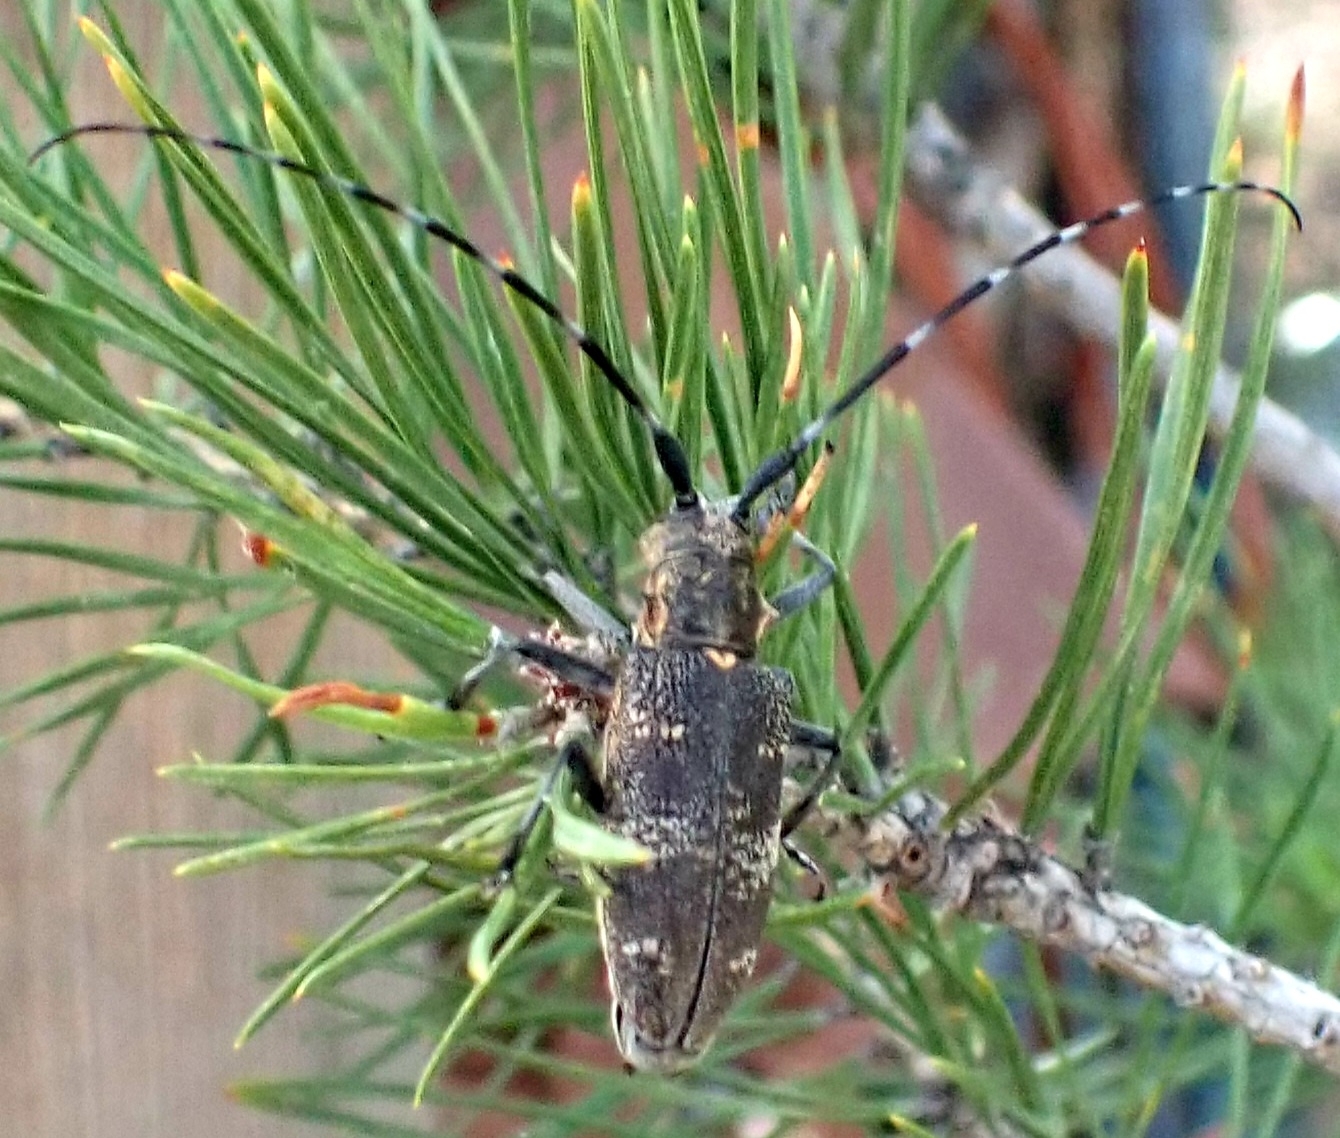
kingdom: Animalia
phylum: Arthropoda
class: Insecta
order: Coleoptera
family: Cerambycidae
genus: Monochamus
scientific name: Monochamus galloprovincialis
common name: Pine sawyer
